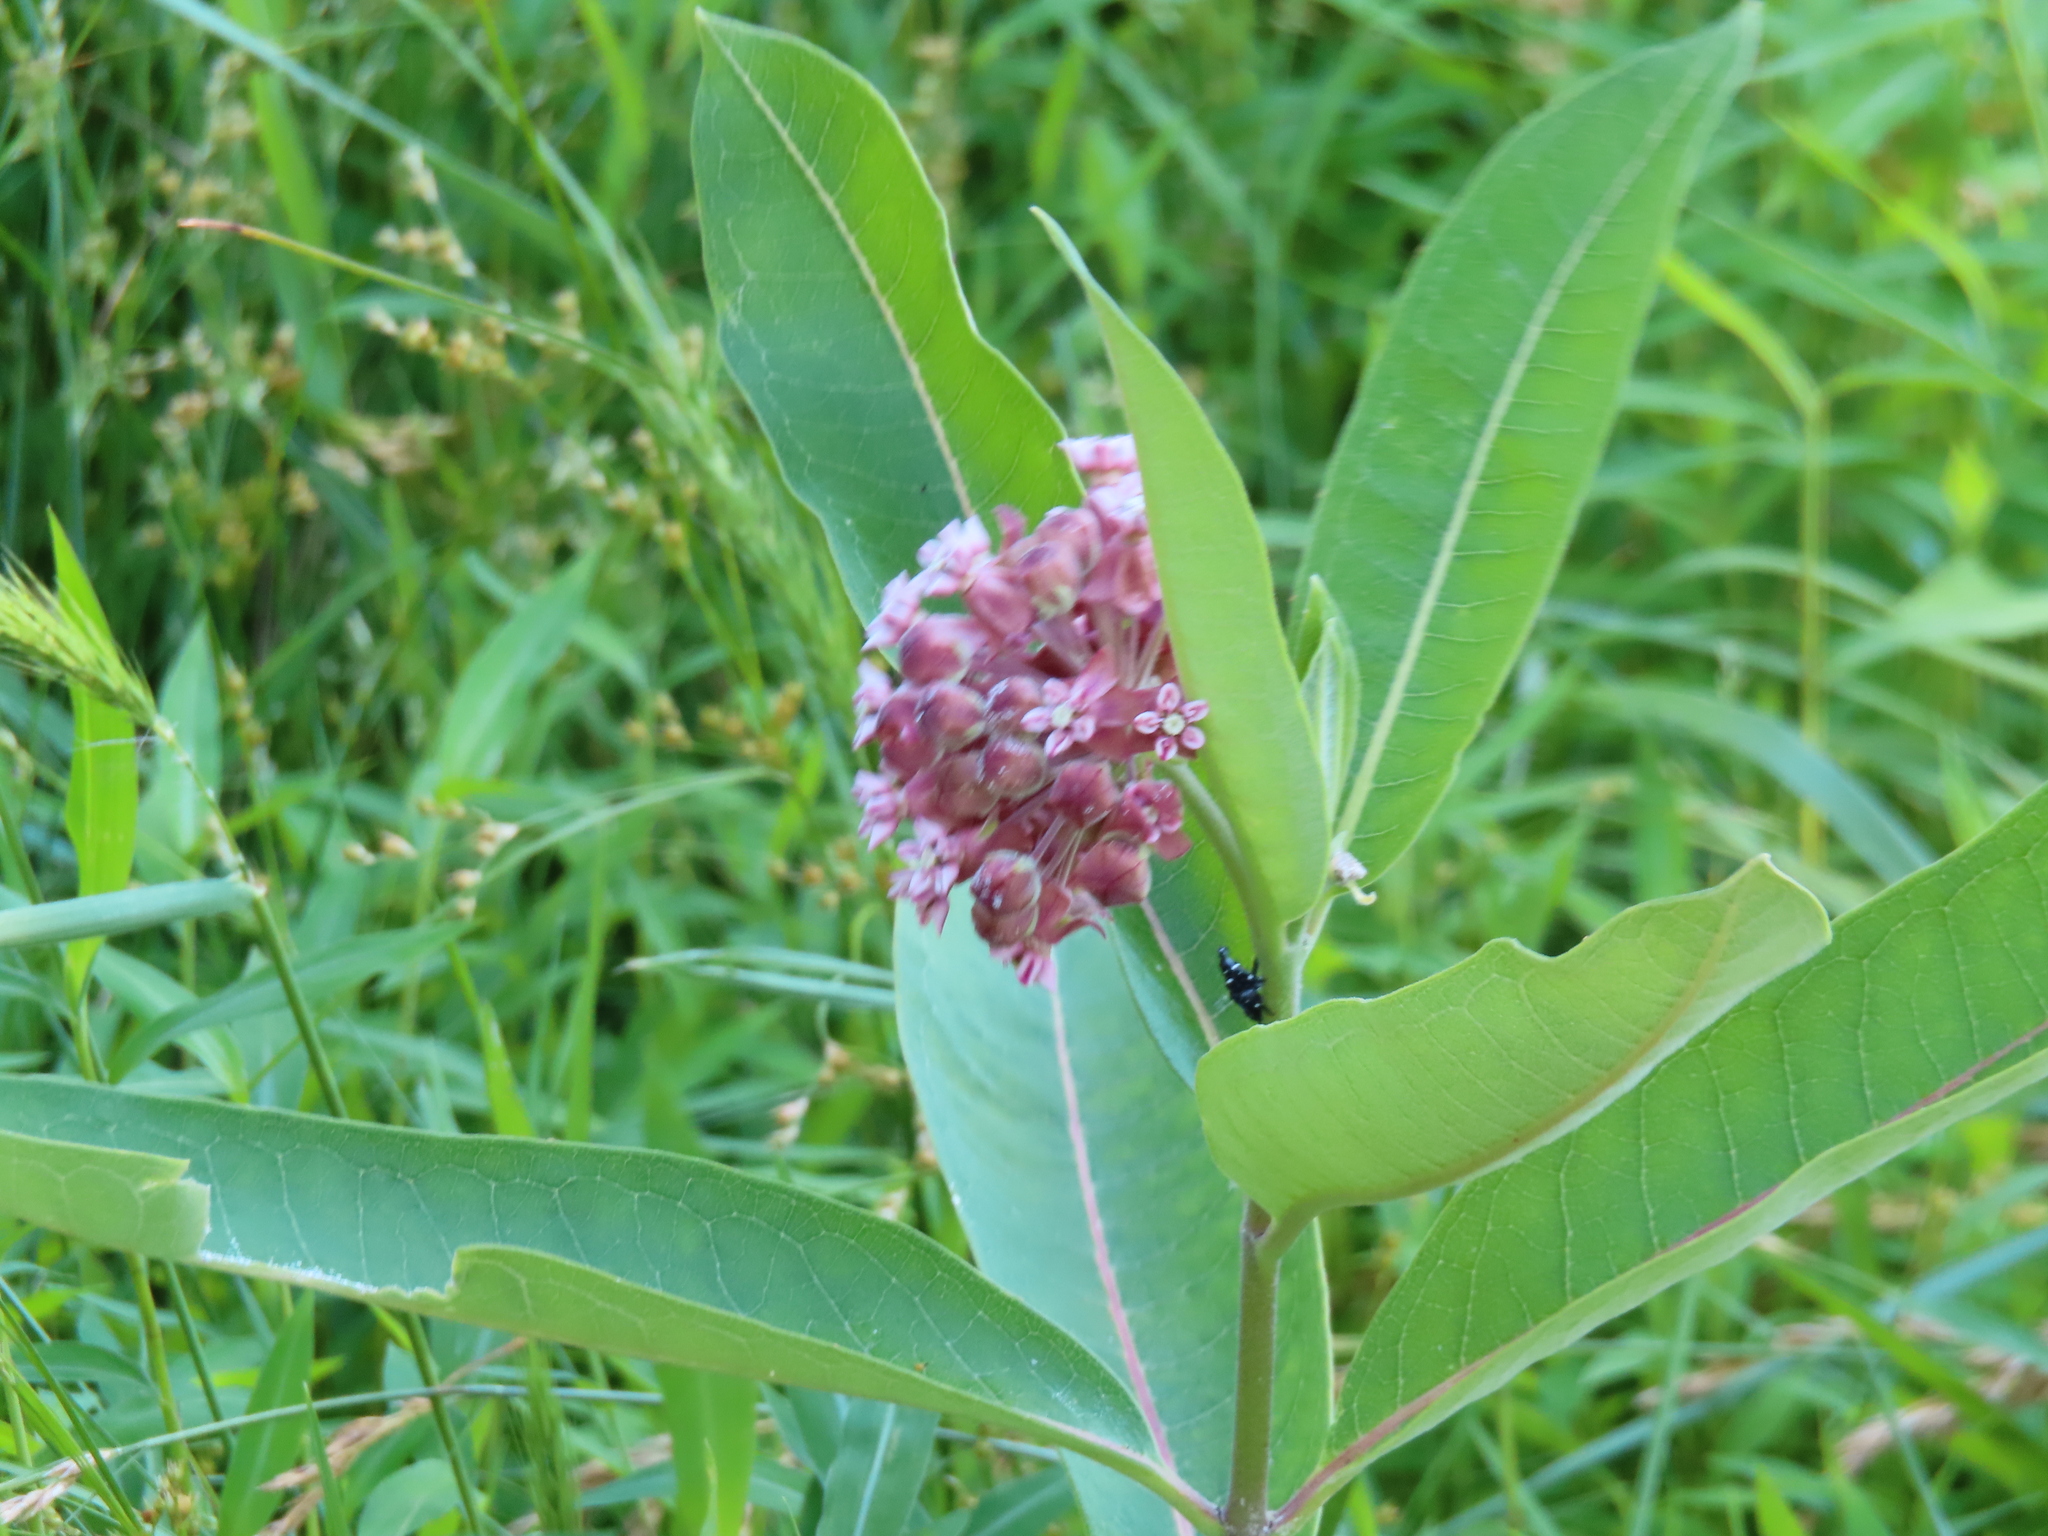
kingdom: Plantae
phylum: Tracheophyta
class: Magnoliopsida
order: Gentianales
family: Apocynaceae
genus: Asclepias
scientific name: Asclepias syriaca
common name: Common milkweed
